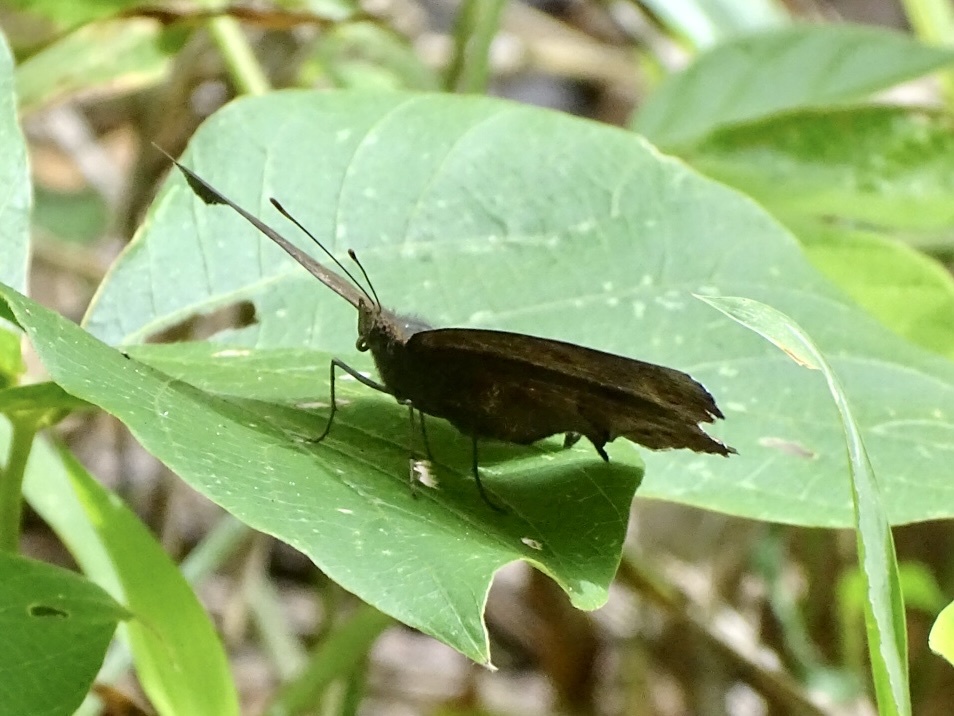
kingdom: Animalia
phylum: Arthropoda
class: Insecta
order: Lepidoptera
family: Nymphalidae
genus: Junonia
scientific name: Junonia iphita
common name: Chocolate pansy
